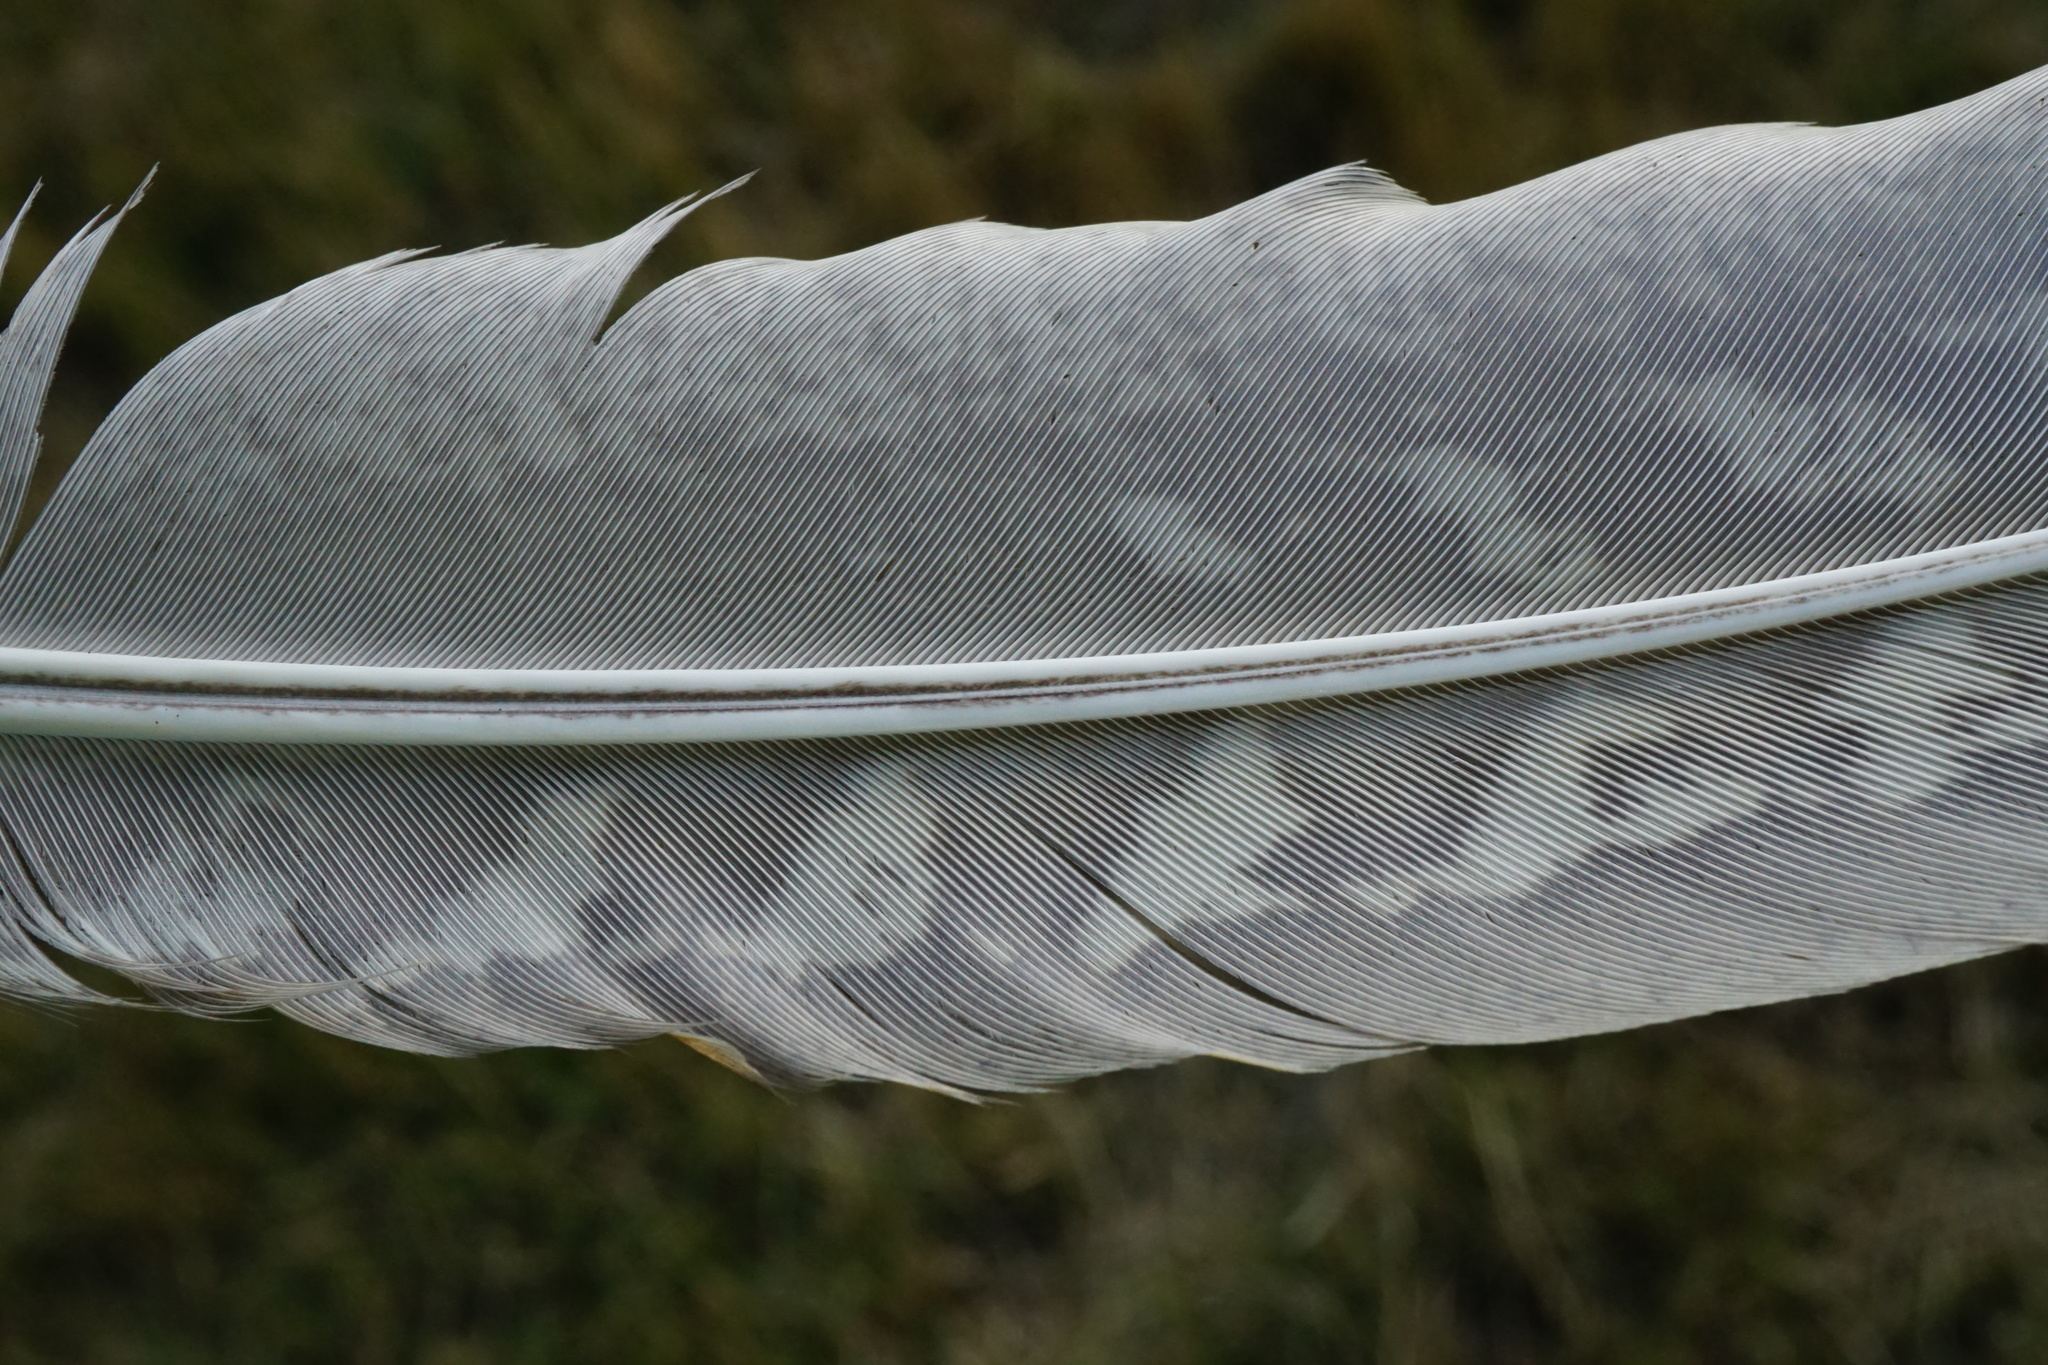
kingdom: Animalia
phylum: Chordata
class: Aves
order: Galliformes
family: Phasianidae
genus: Phasianus
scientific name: Phasianus colchicus
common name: Common pheasant
